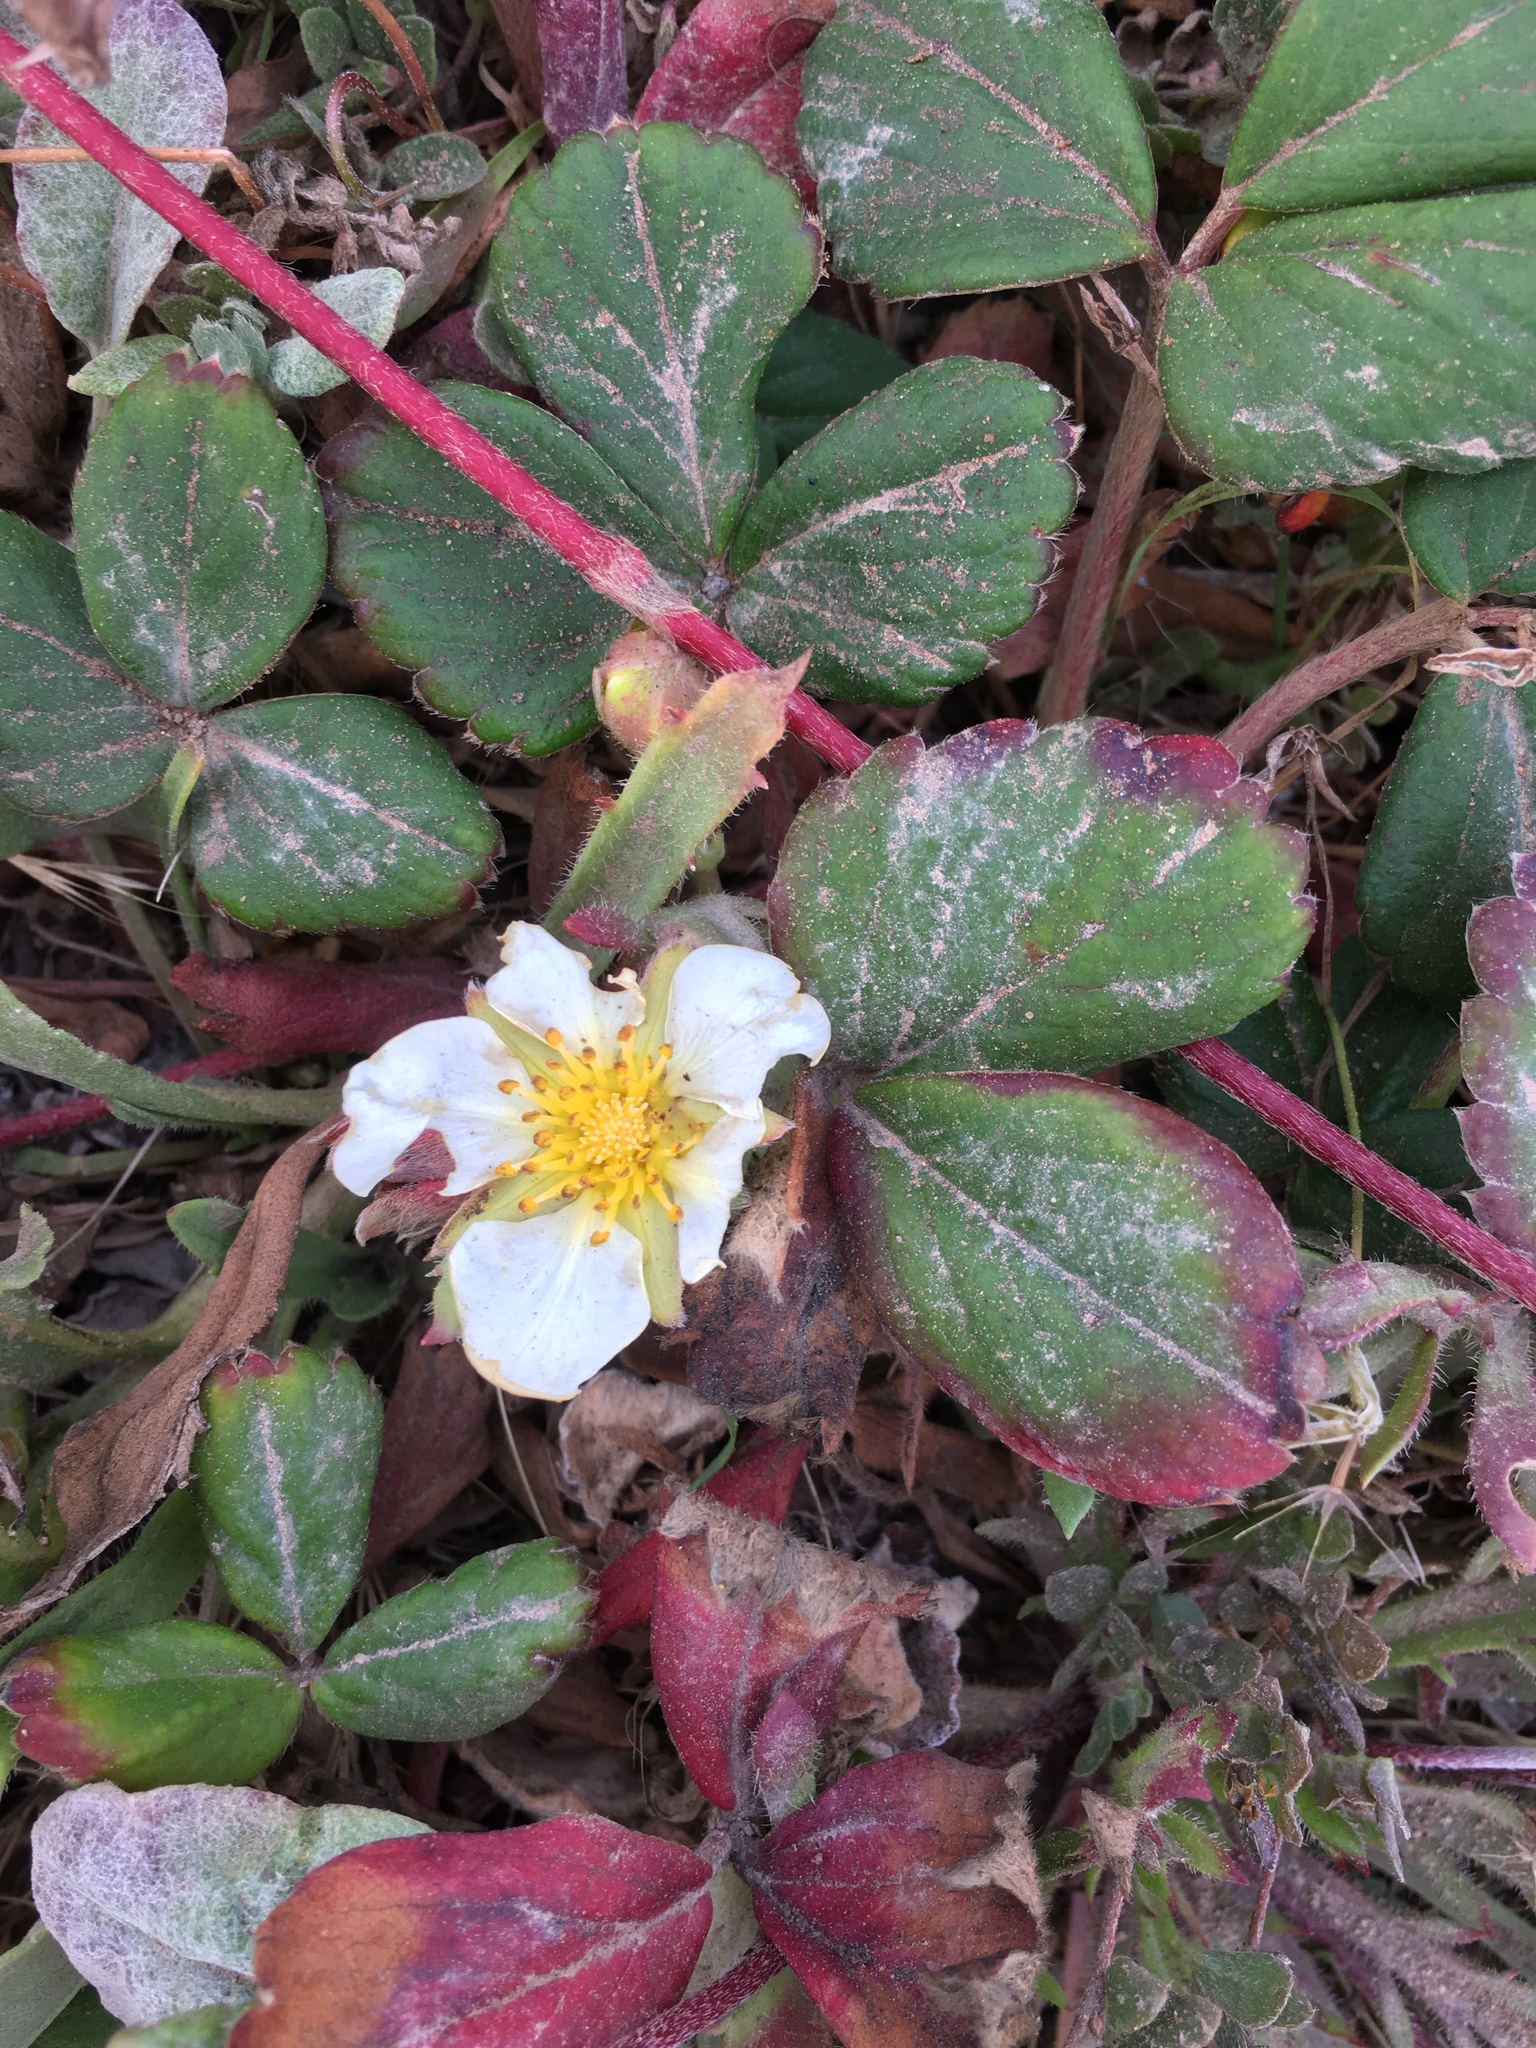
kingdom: Plantae
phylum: Tracheophyta
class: Magnoliopsida
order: Rosales
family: Rosaceae
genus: Fragaria
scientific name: Fragaria chiloensis
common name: Beach strawberry
